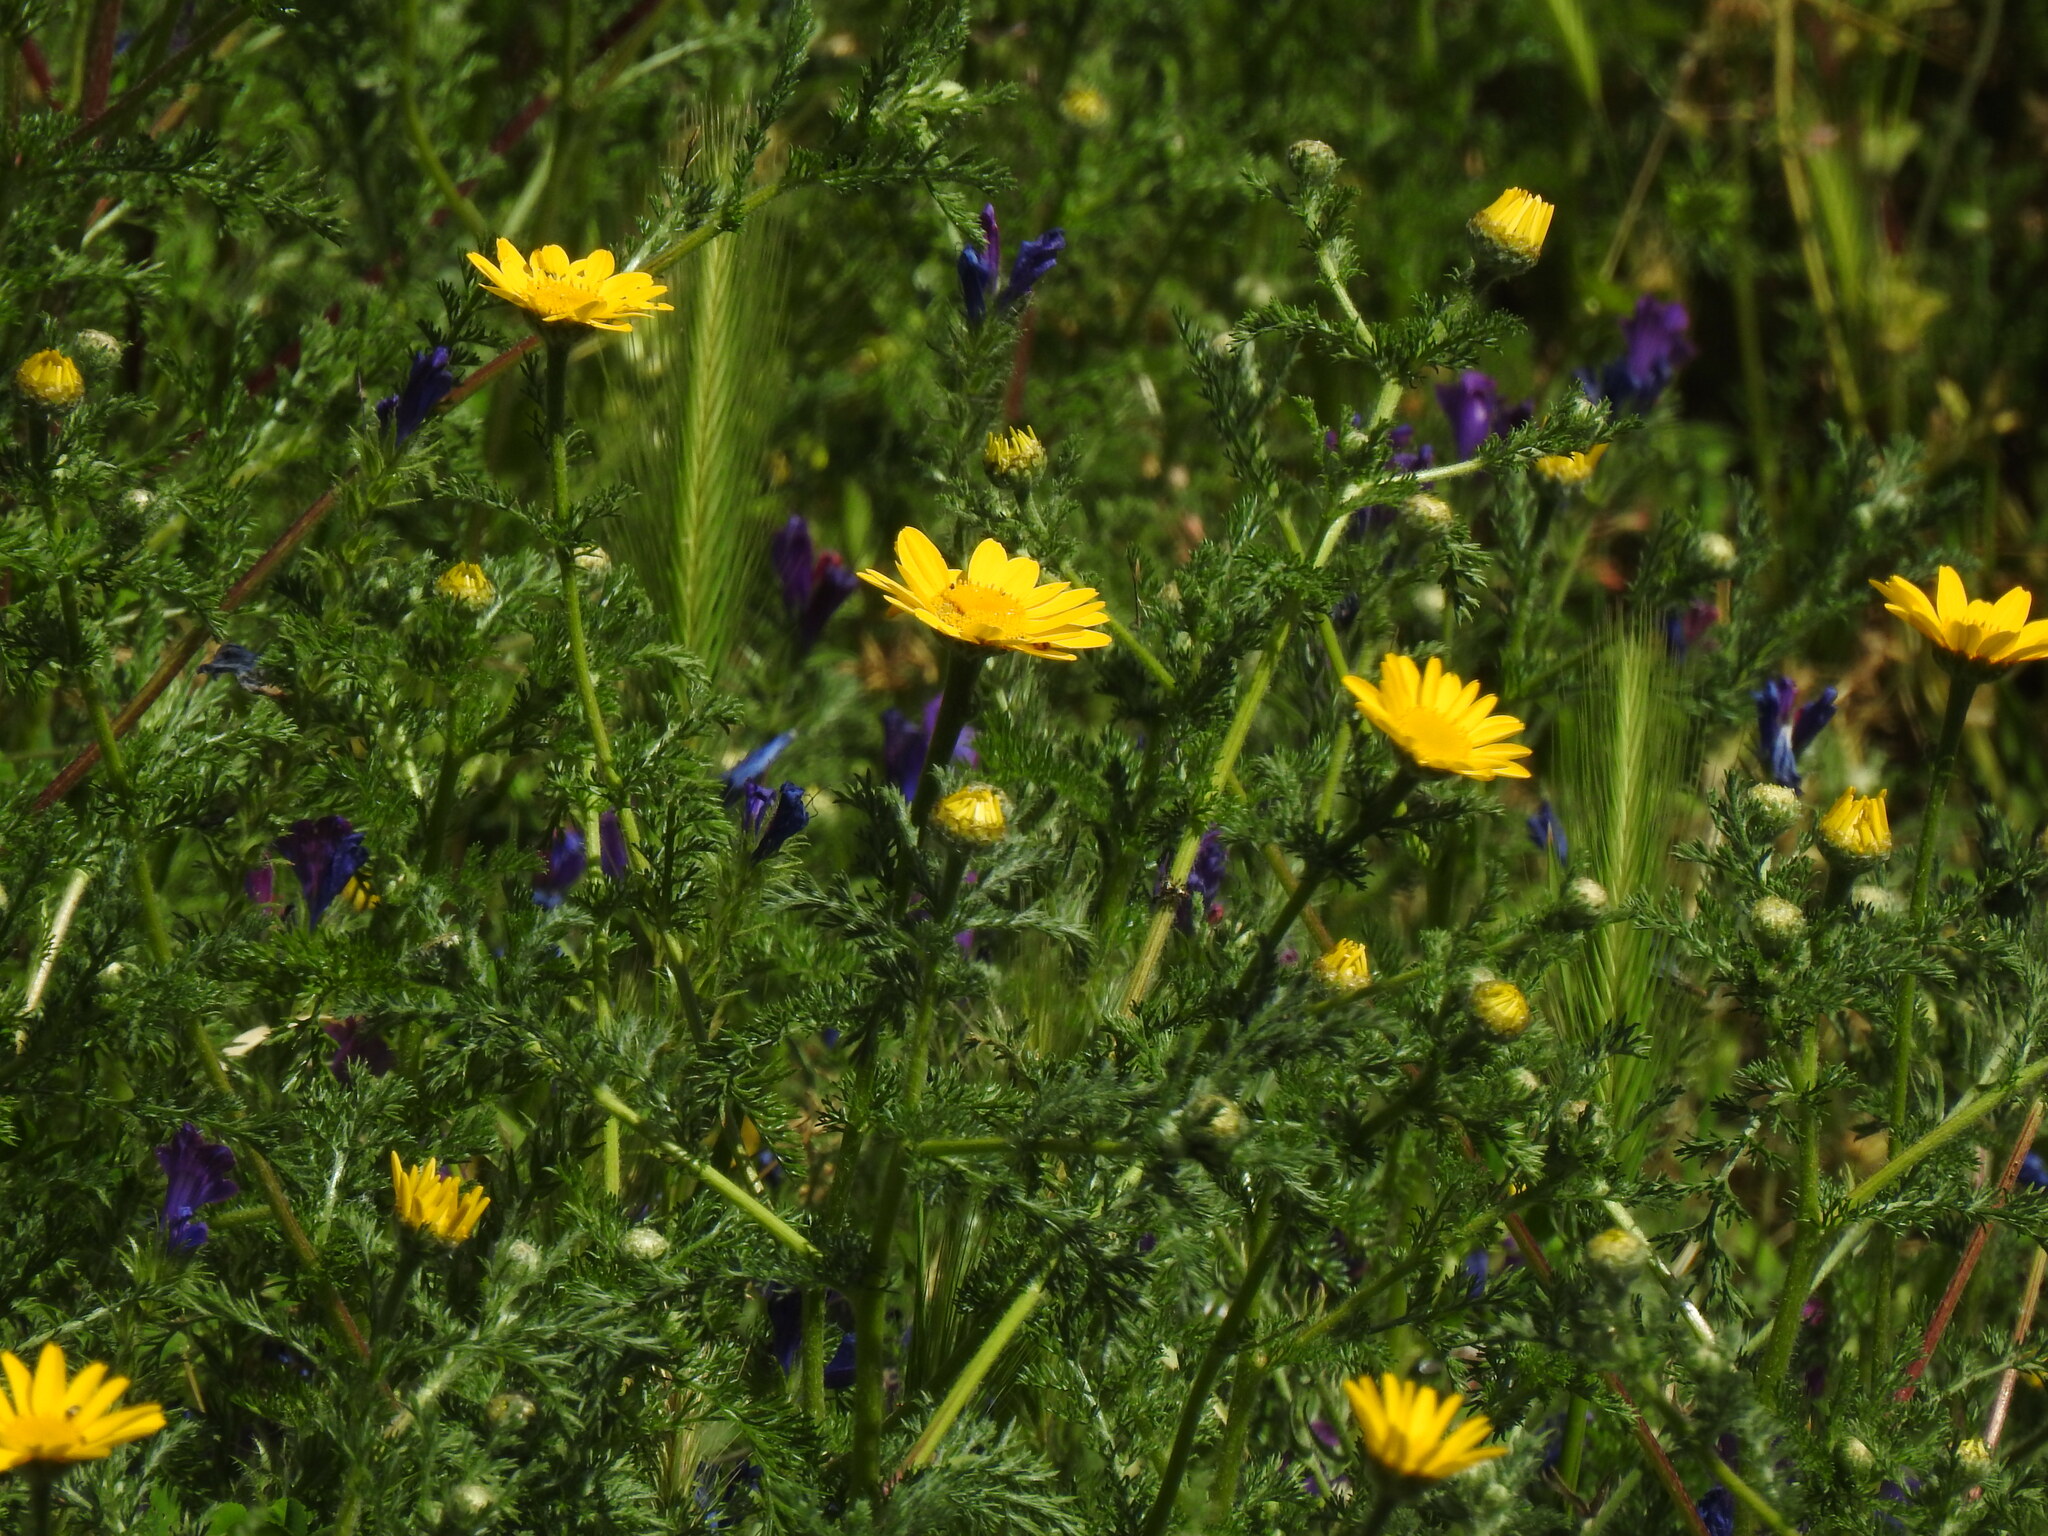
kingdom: Plantae
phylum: Tracheophyta
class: Magnoliopsida
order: Asterales
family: Asteraceae
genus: Anacyclus
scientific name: Anacyclus radiatus
